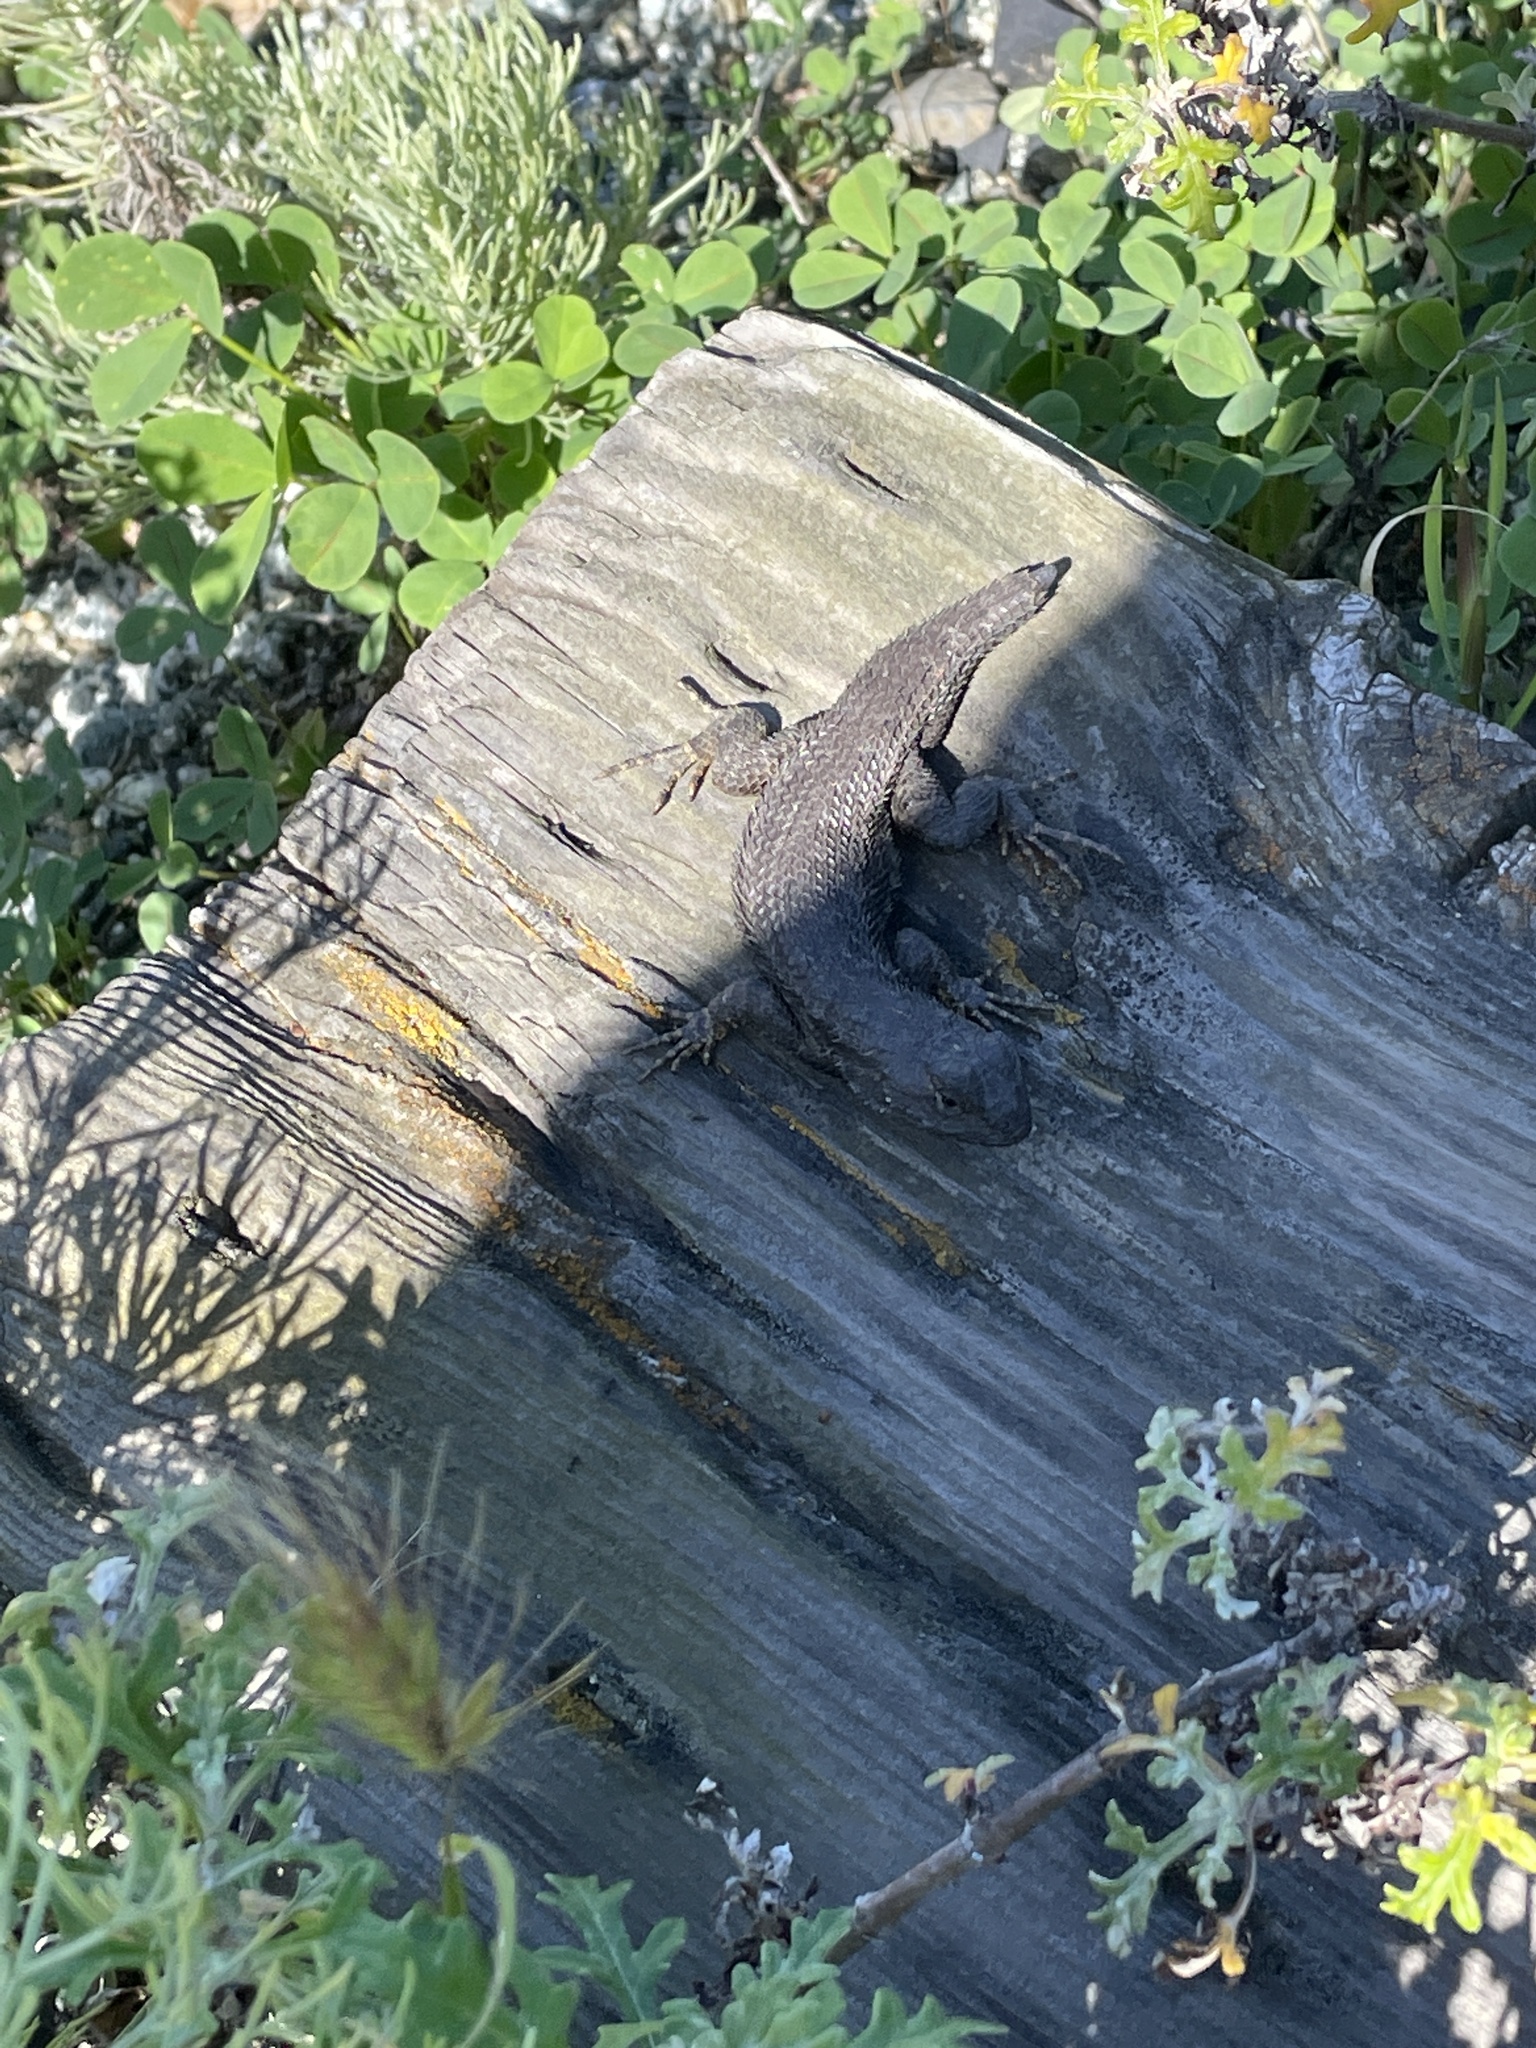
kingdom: Animalia
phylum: Chordata
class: Squamata
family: Phrynosomatidae
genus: Sceloporus
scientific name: Sceloporus occidentalis
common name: Western fence lizard
